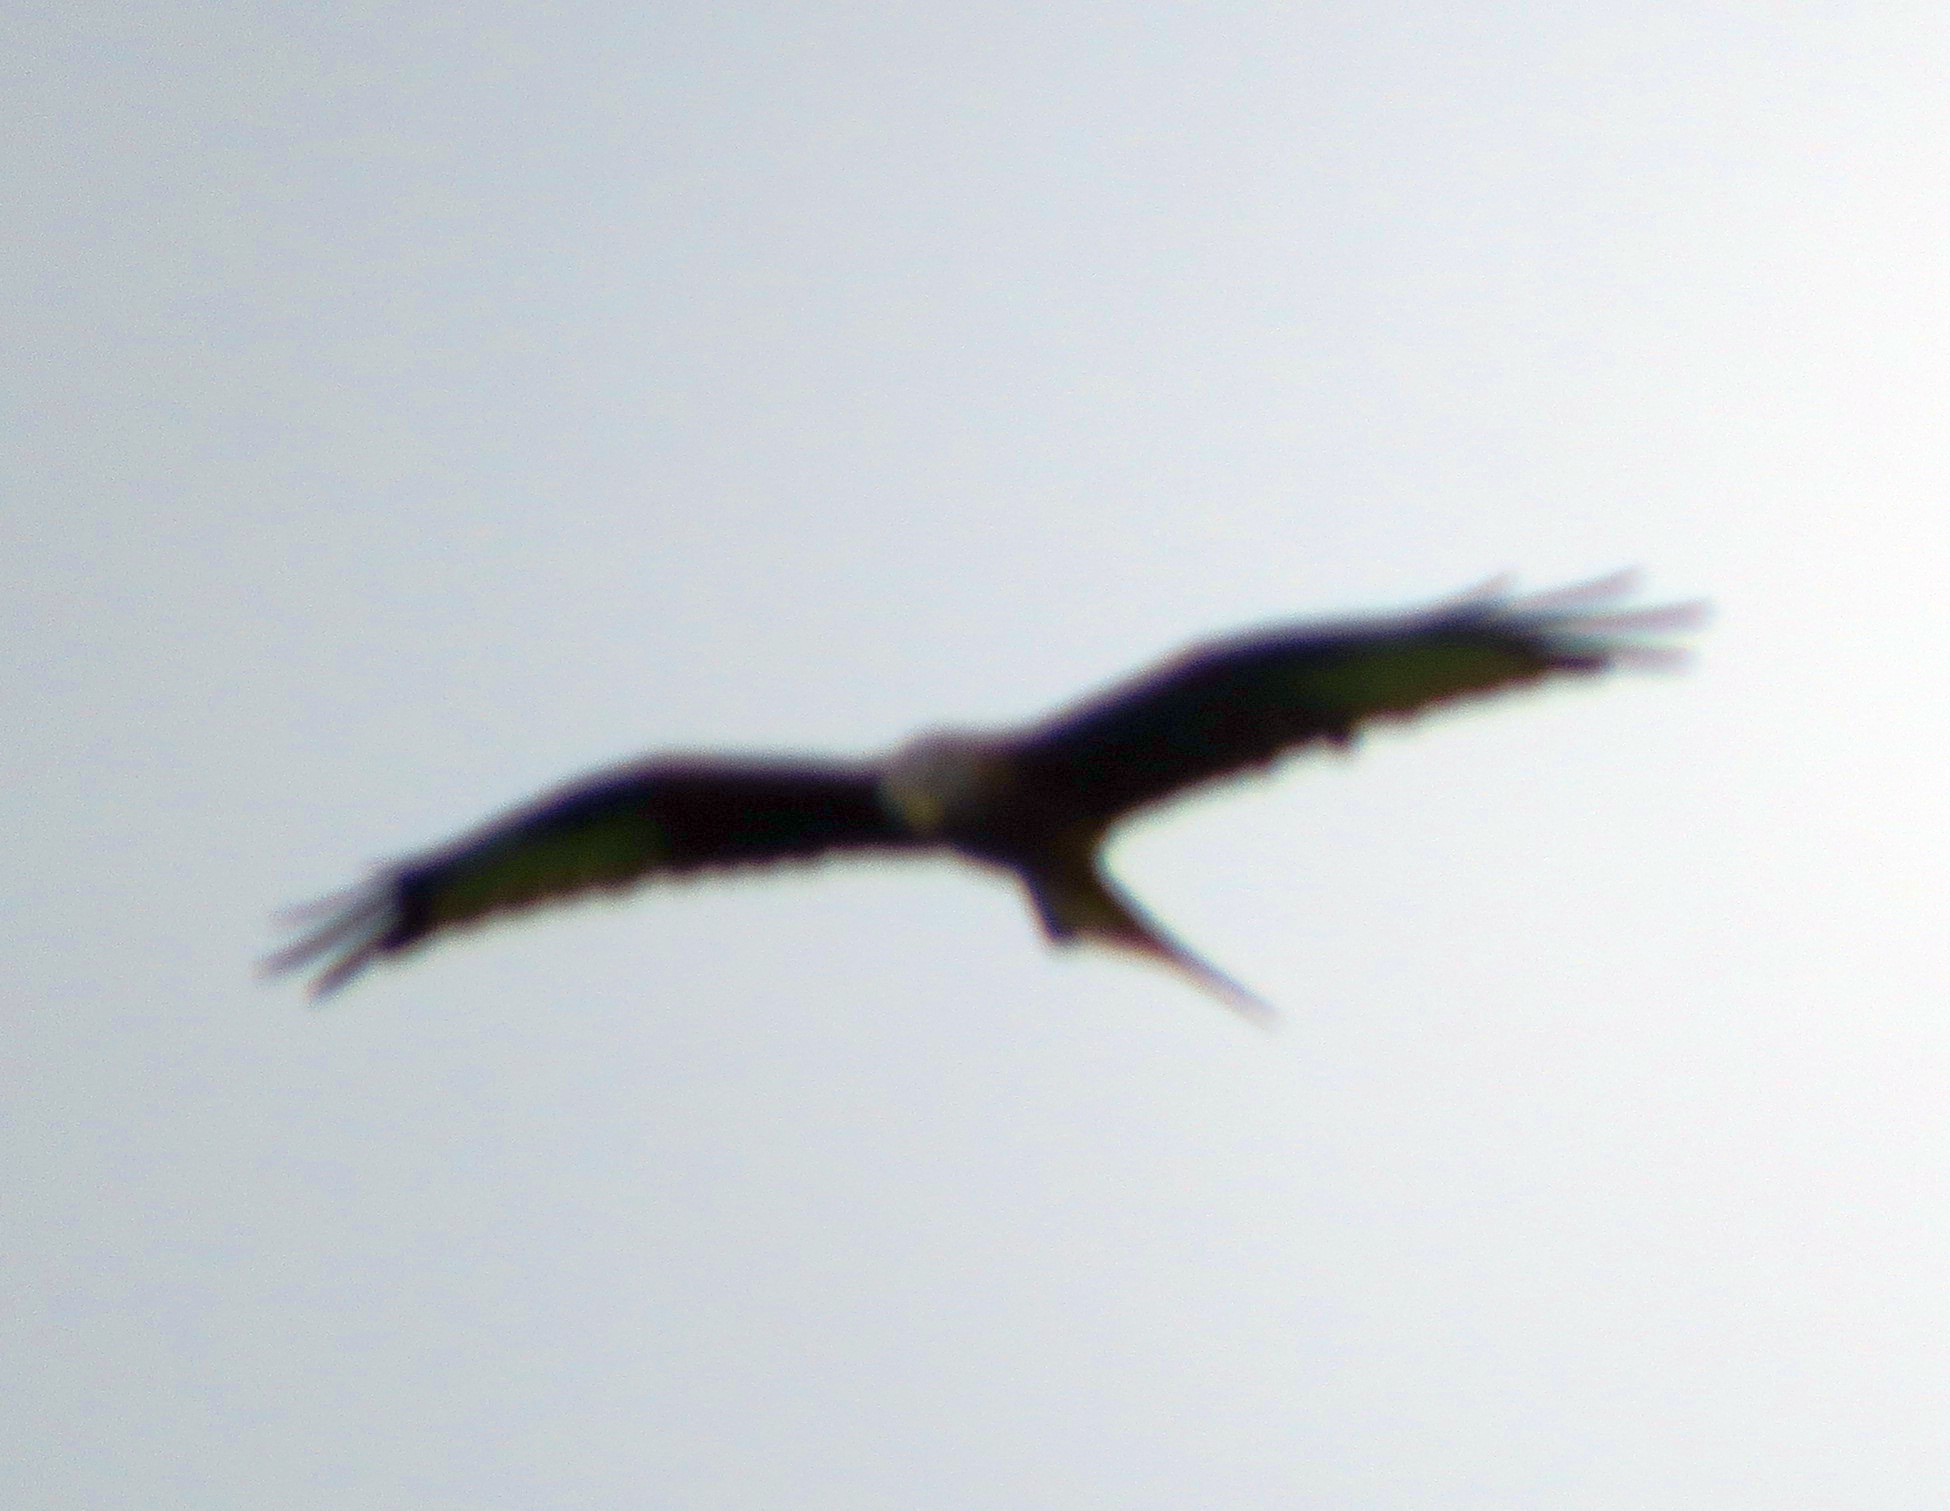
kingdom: Animalia
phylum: Chordata
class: Aves
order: Accipitriformes
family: Accipitridae
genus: Milvus
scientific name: Milvus milvus
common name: Red kite
